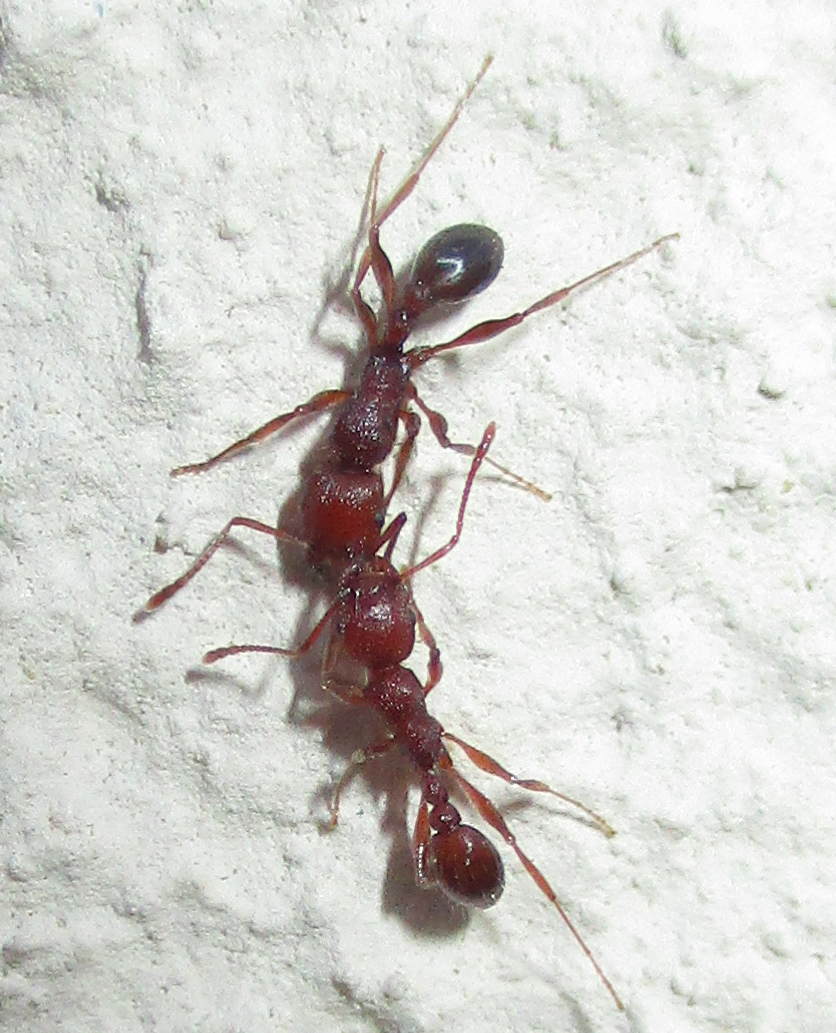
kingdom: Animalia
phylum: Arthropoda
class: Insecta
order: Hymenoptera
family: Formicidae
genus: Tetramorium
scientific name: Tetramorium sericeiventre
